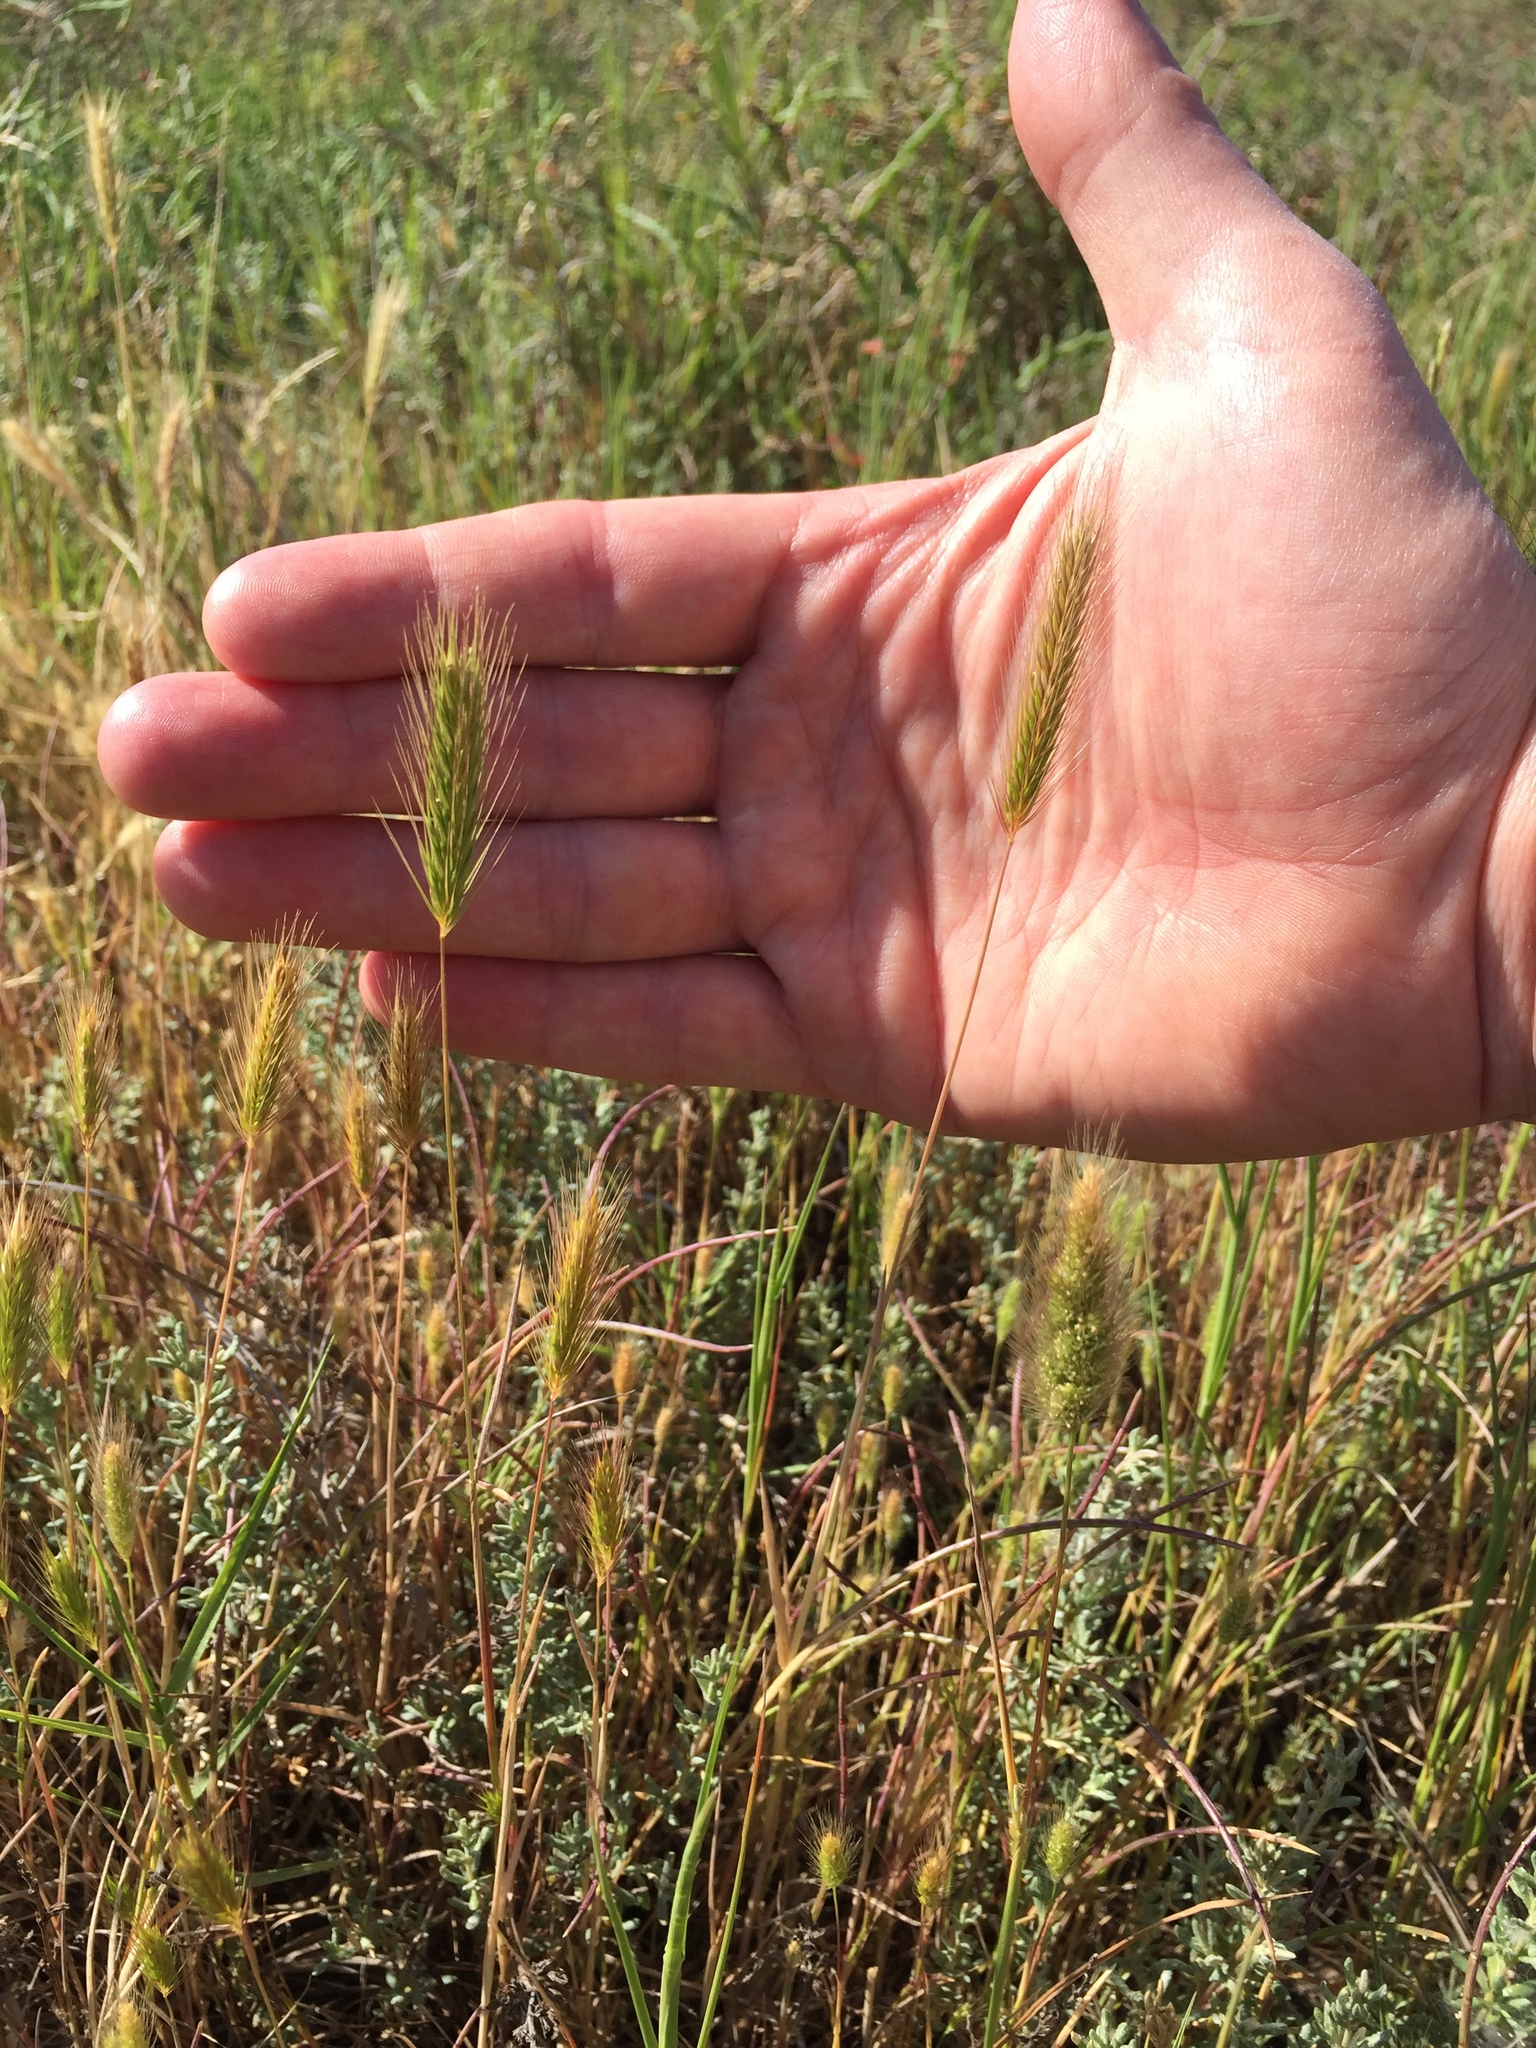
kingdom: Plantae
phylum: Tracheophyta
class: Liliopsida
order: Poales
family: Poaceae
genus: Hordeum
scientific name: Hordeum depressum
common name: Low barley
